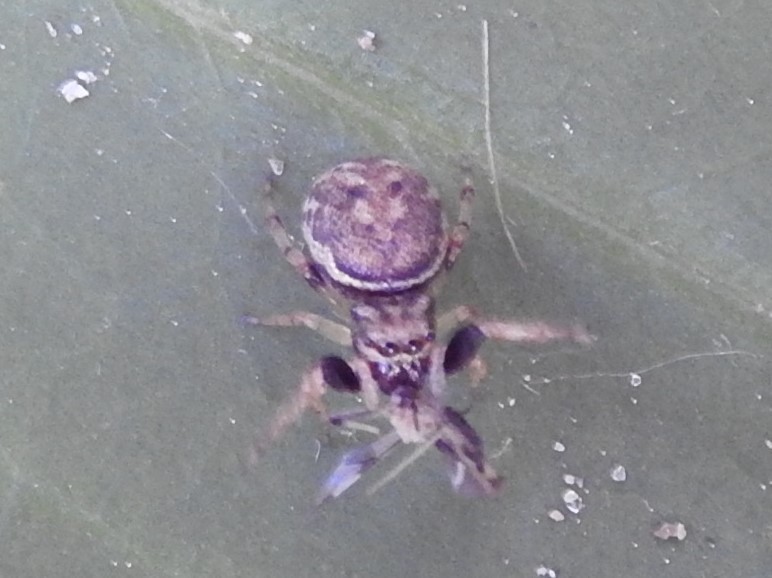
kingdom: Animalia
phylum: Arthropoda
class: Arachnida
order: Araneae
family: Salticidae
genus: Zygoballus
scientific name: Zygoballus rufipes
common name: Jumping spiders
